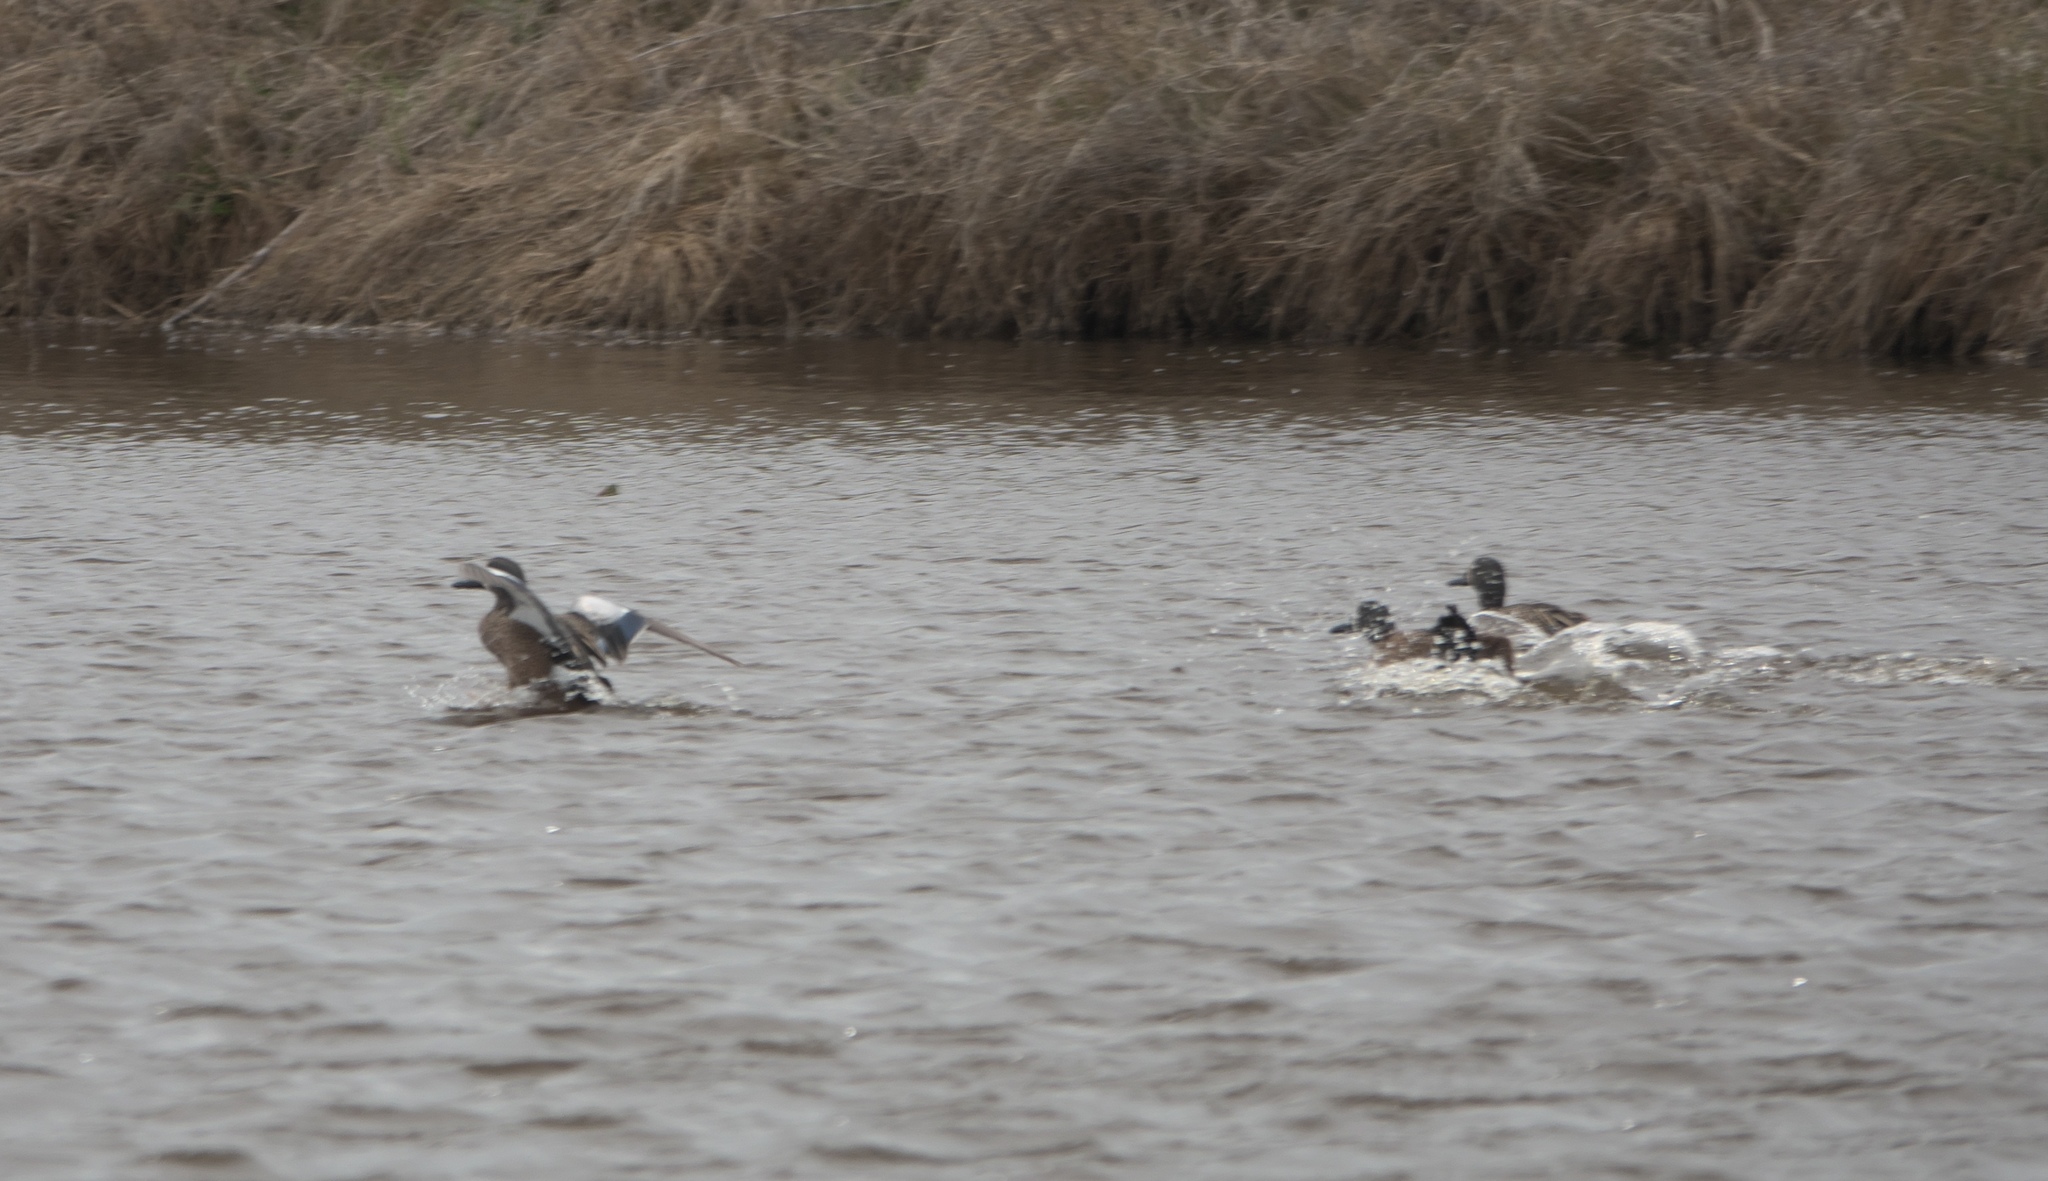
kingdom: Animalia
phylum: Chordata
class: Aves
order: Anseriformes
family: Anatidae
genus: Spatula
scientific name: Spatula discors
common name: Blue-winged teal
